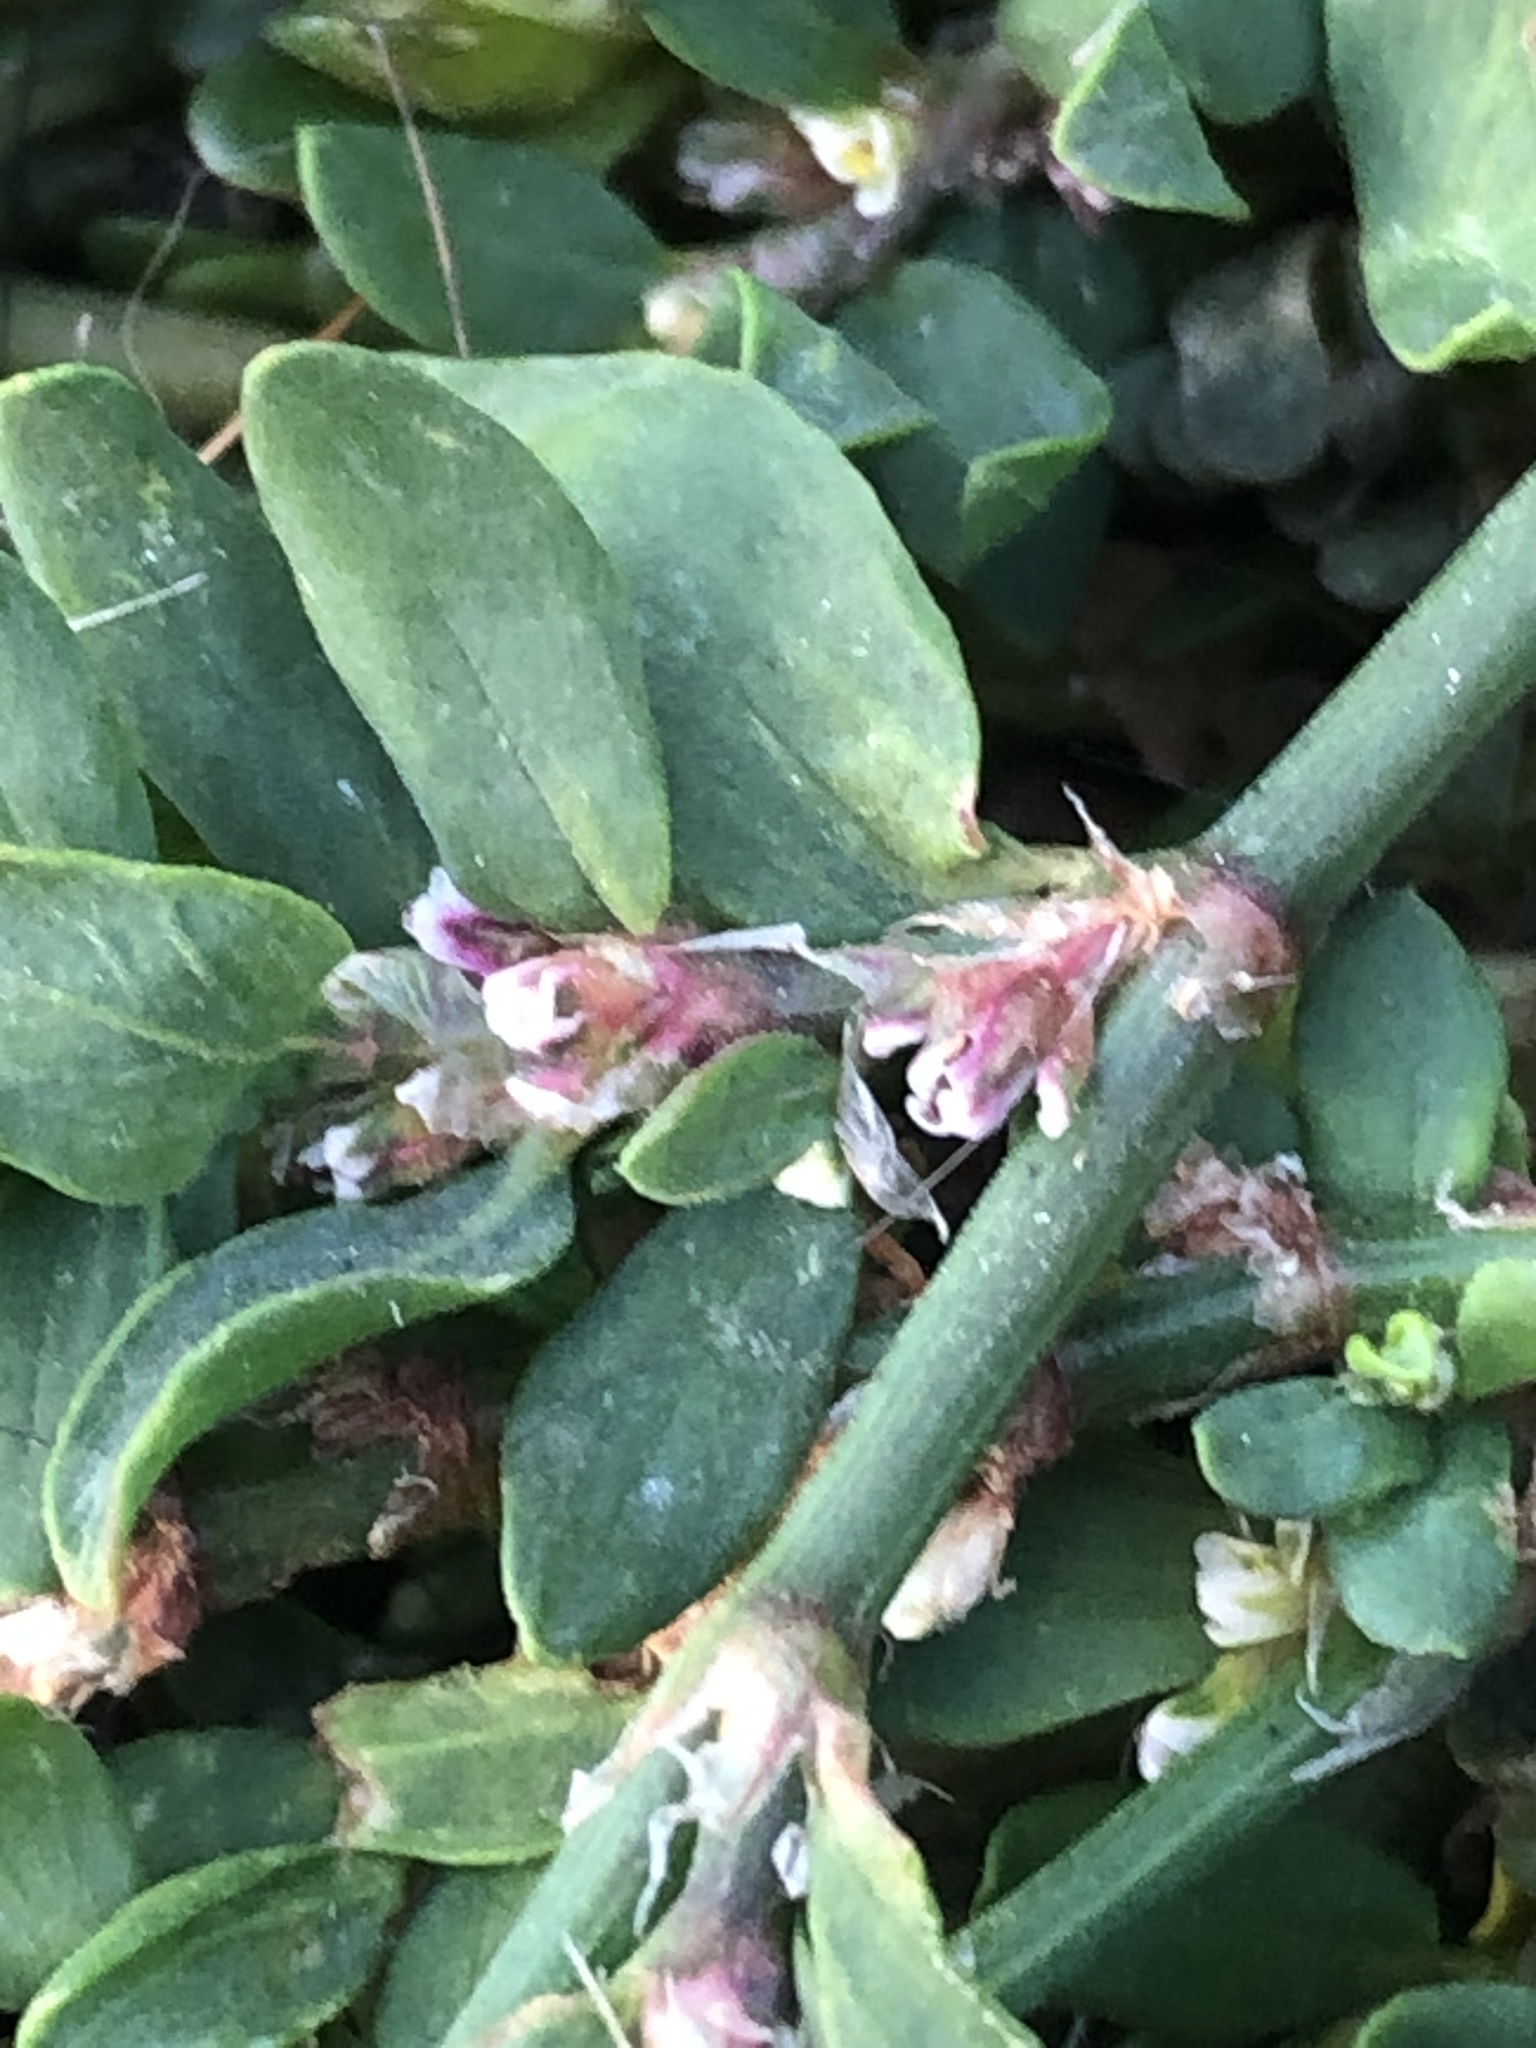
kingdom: Plantae
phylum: Tracheophyta
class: Magnoliopsida
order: Caryophyllales
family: Polygonaceae
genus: Polygonum
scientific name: Polygonum aviculare
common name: Prostrate knotweed
